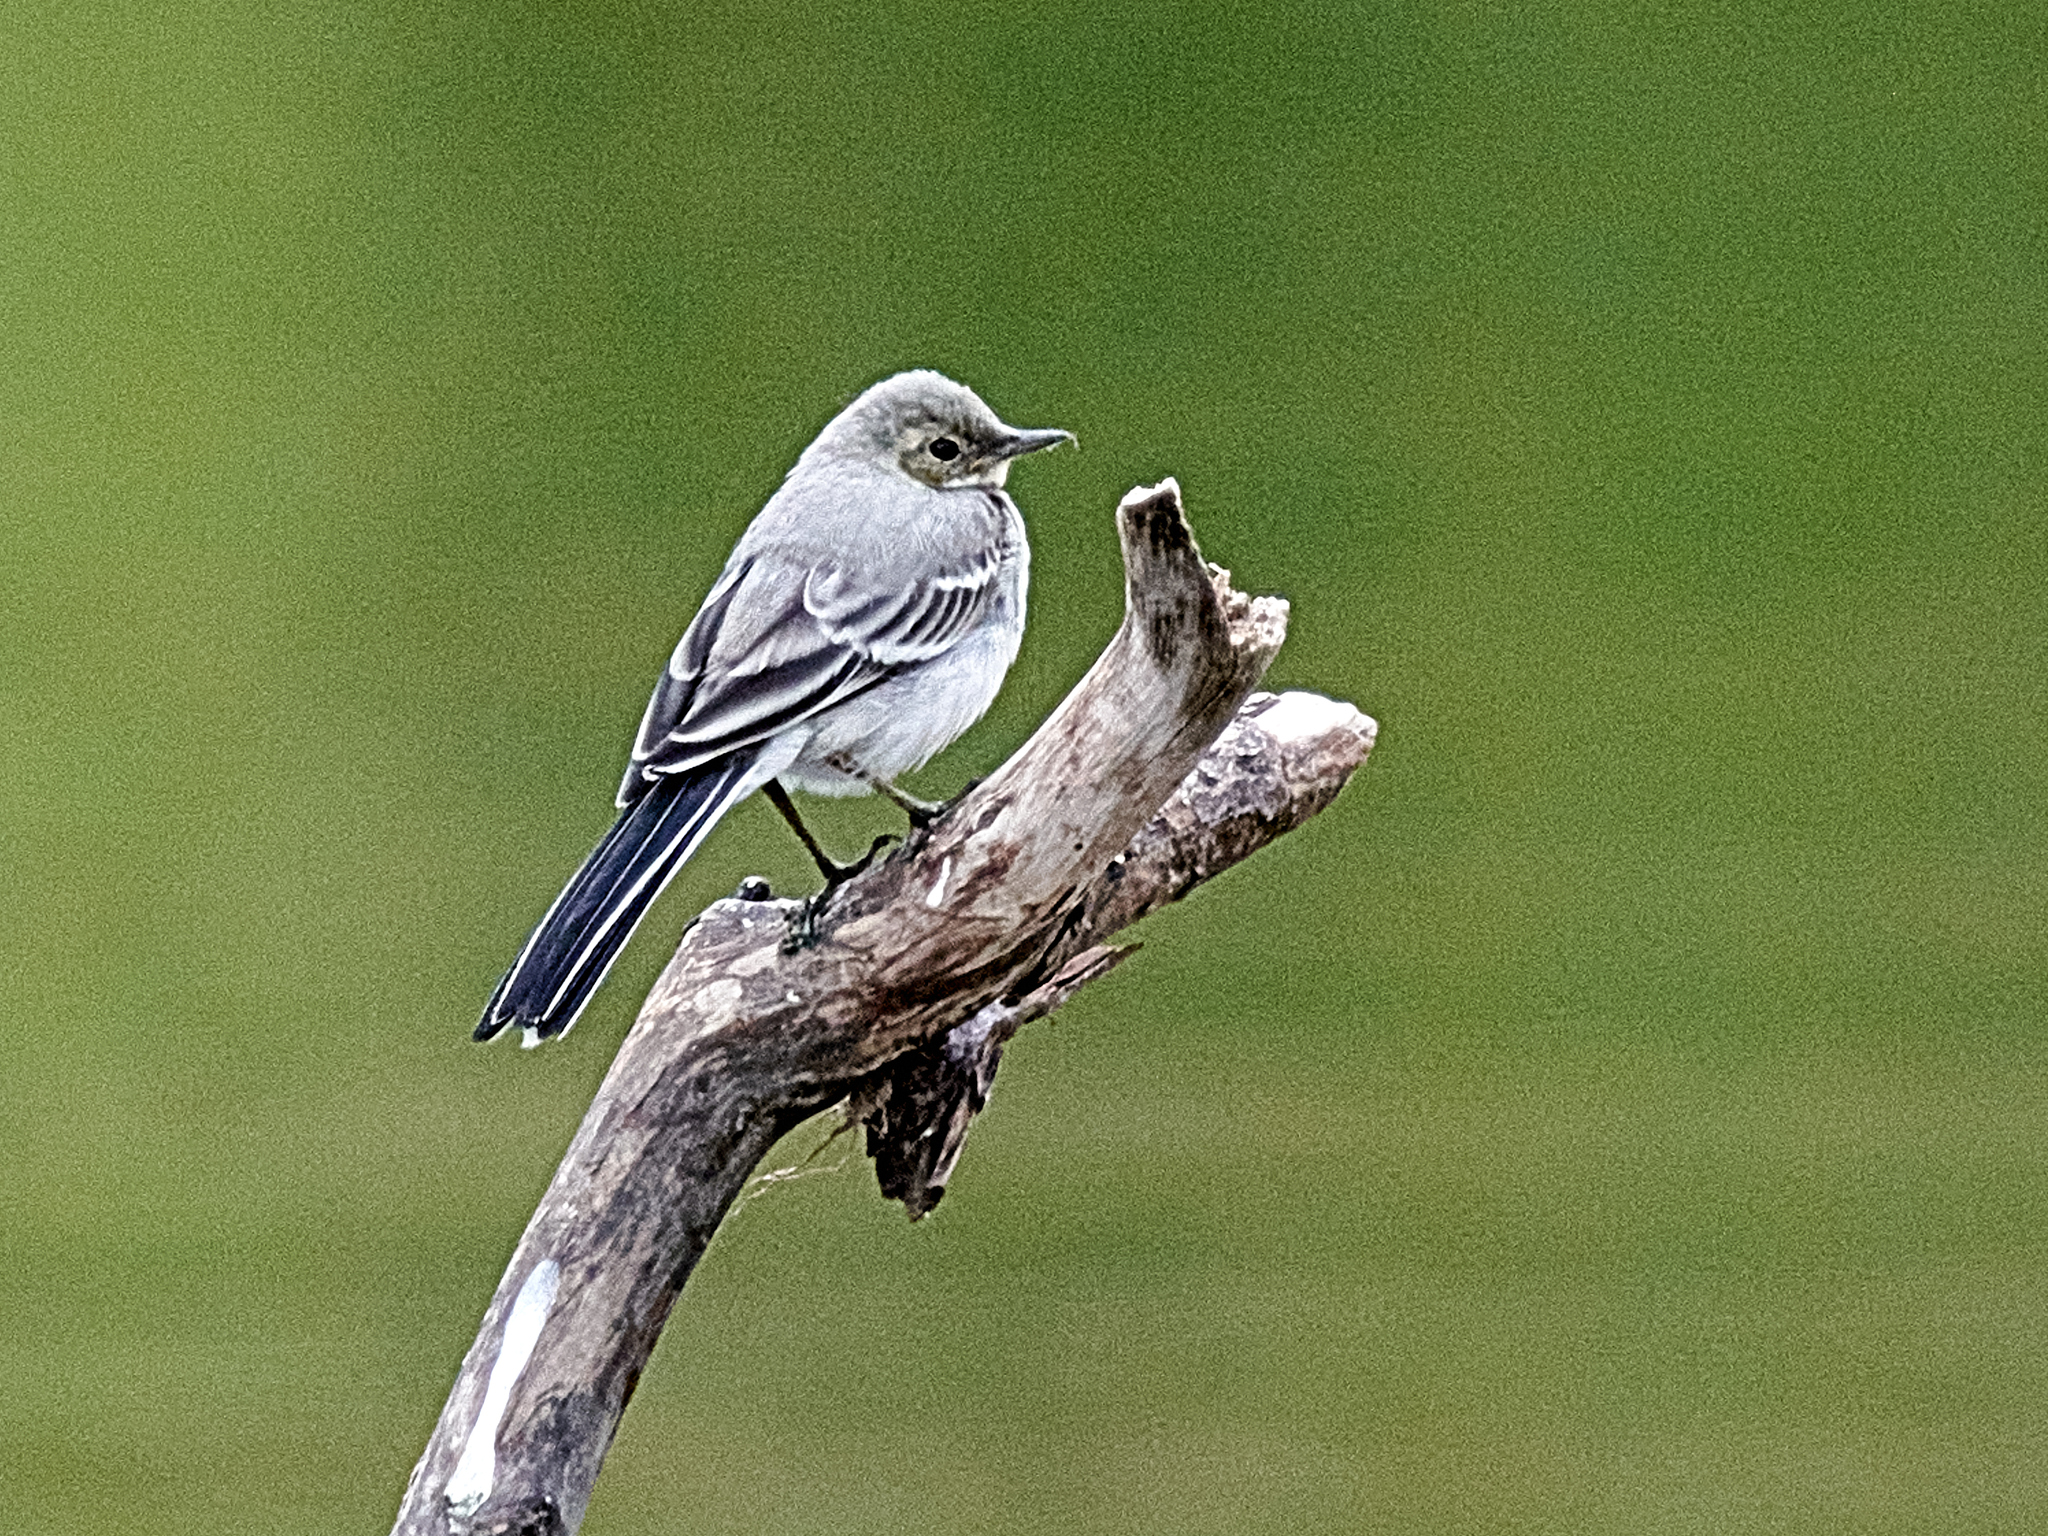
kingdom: Animalia
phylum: Chordata
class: Aves
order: Passeriformes
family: Motacillidae
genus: Motacilla
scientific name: Motacilla alba
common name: White wagtail
